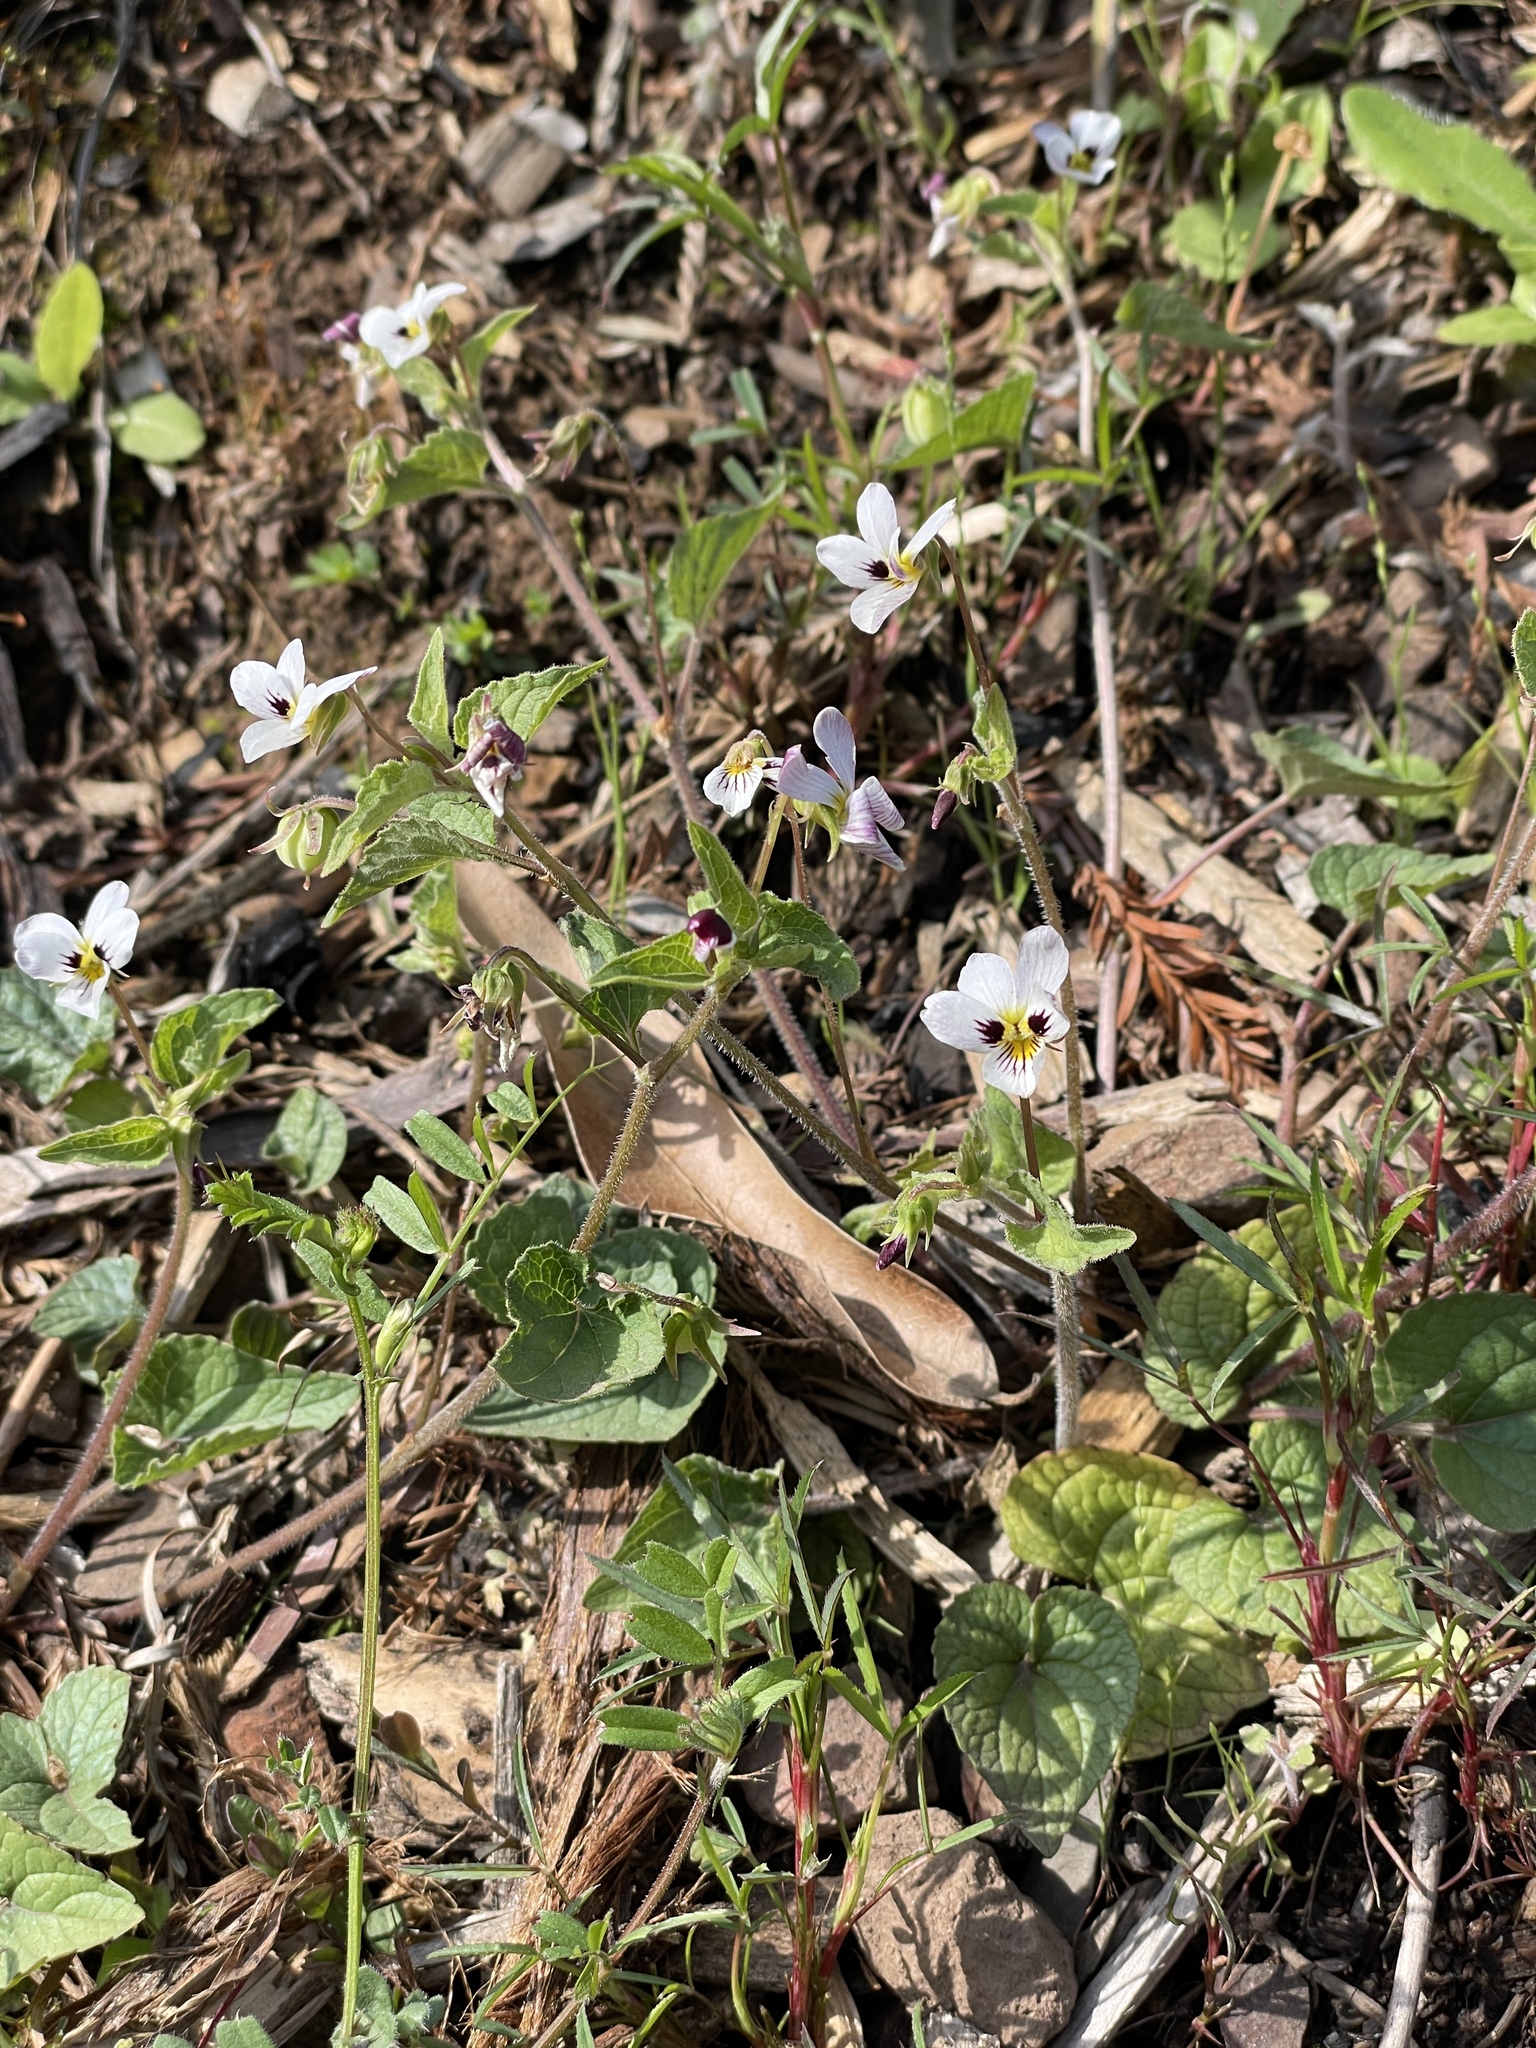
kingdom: Plantae
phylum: Tracheophyta
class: Magnoliopsida
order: Malpighiales
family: Violaceae
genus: Viola
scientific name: Viola ocellata
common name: Western heart's ease
